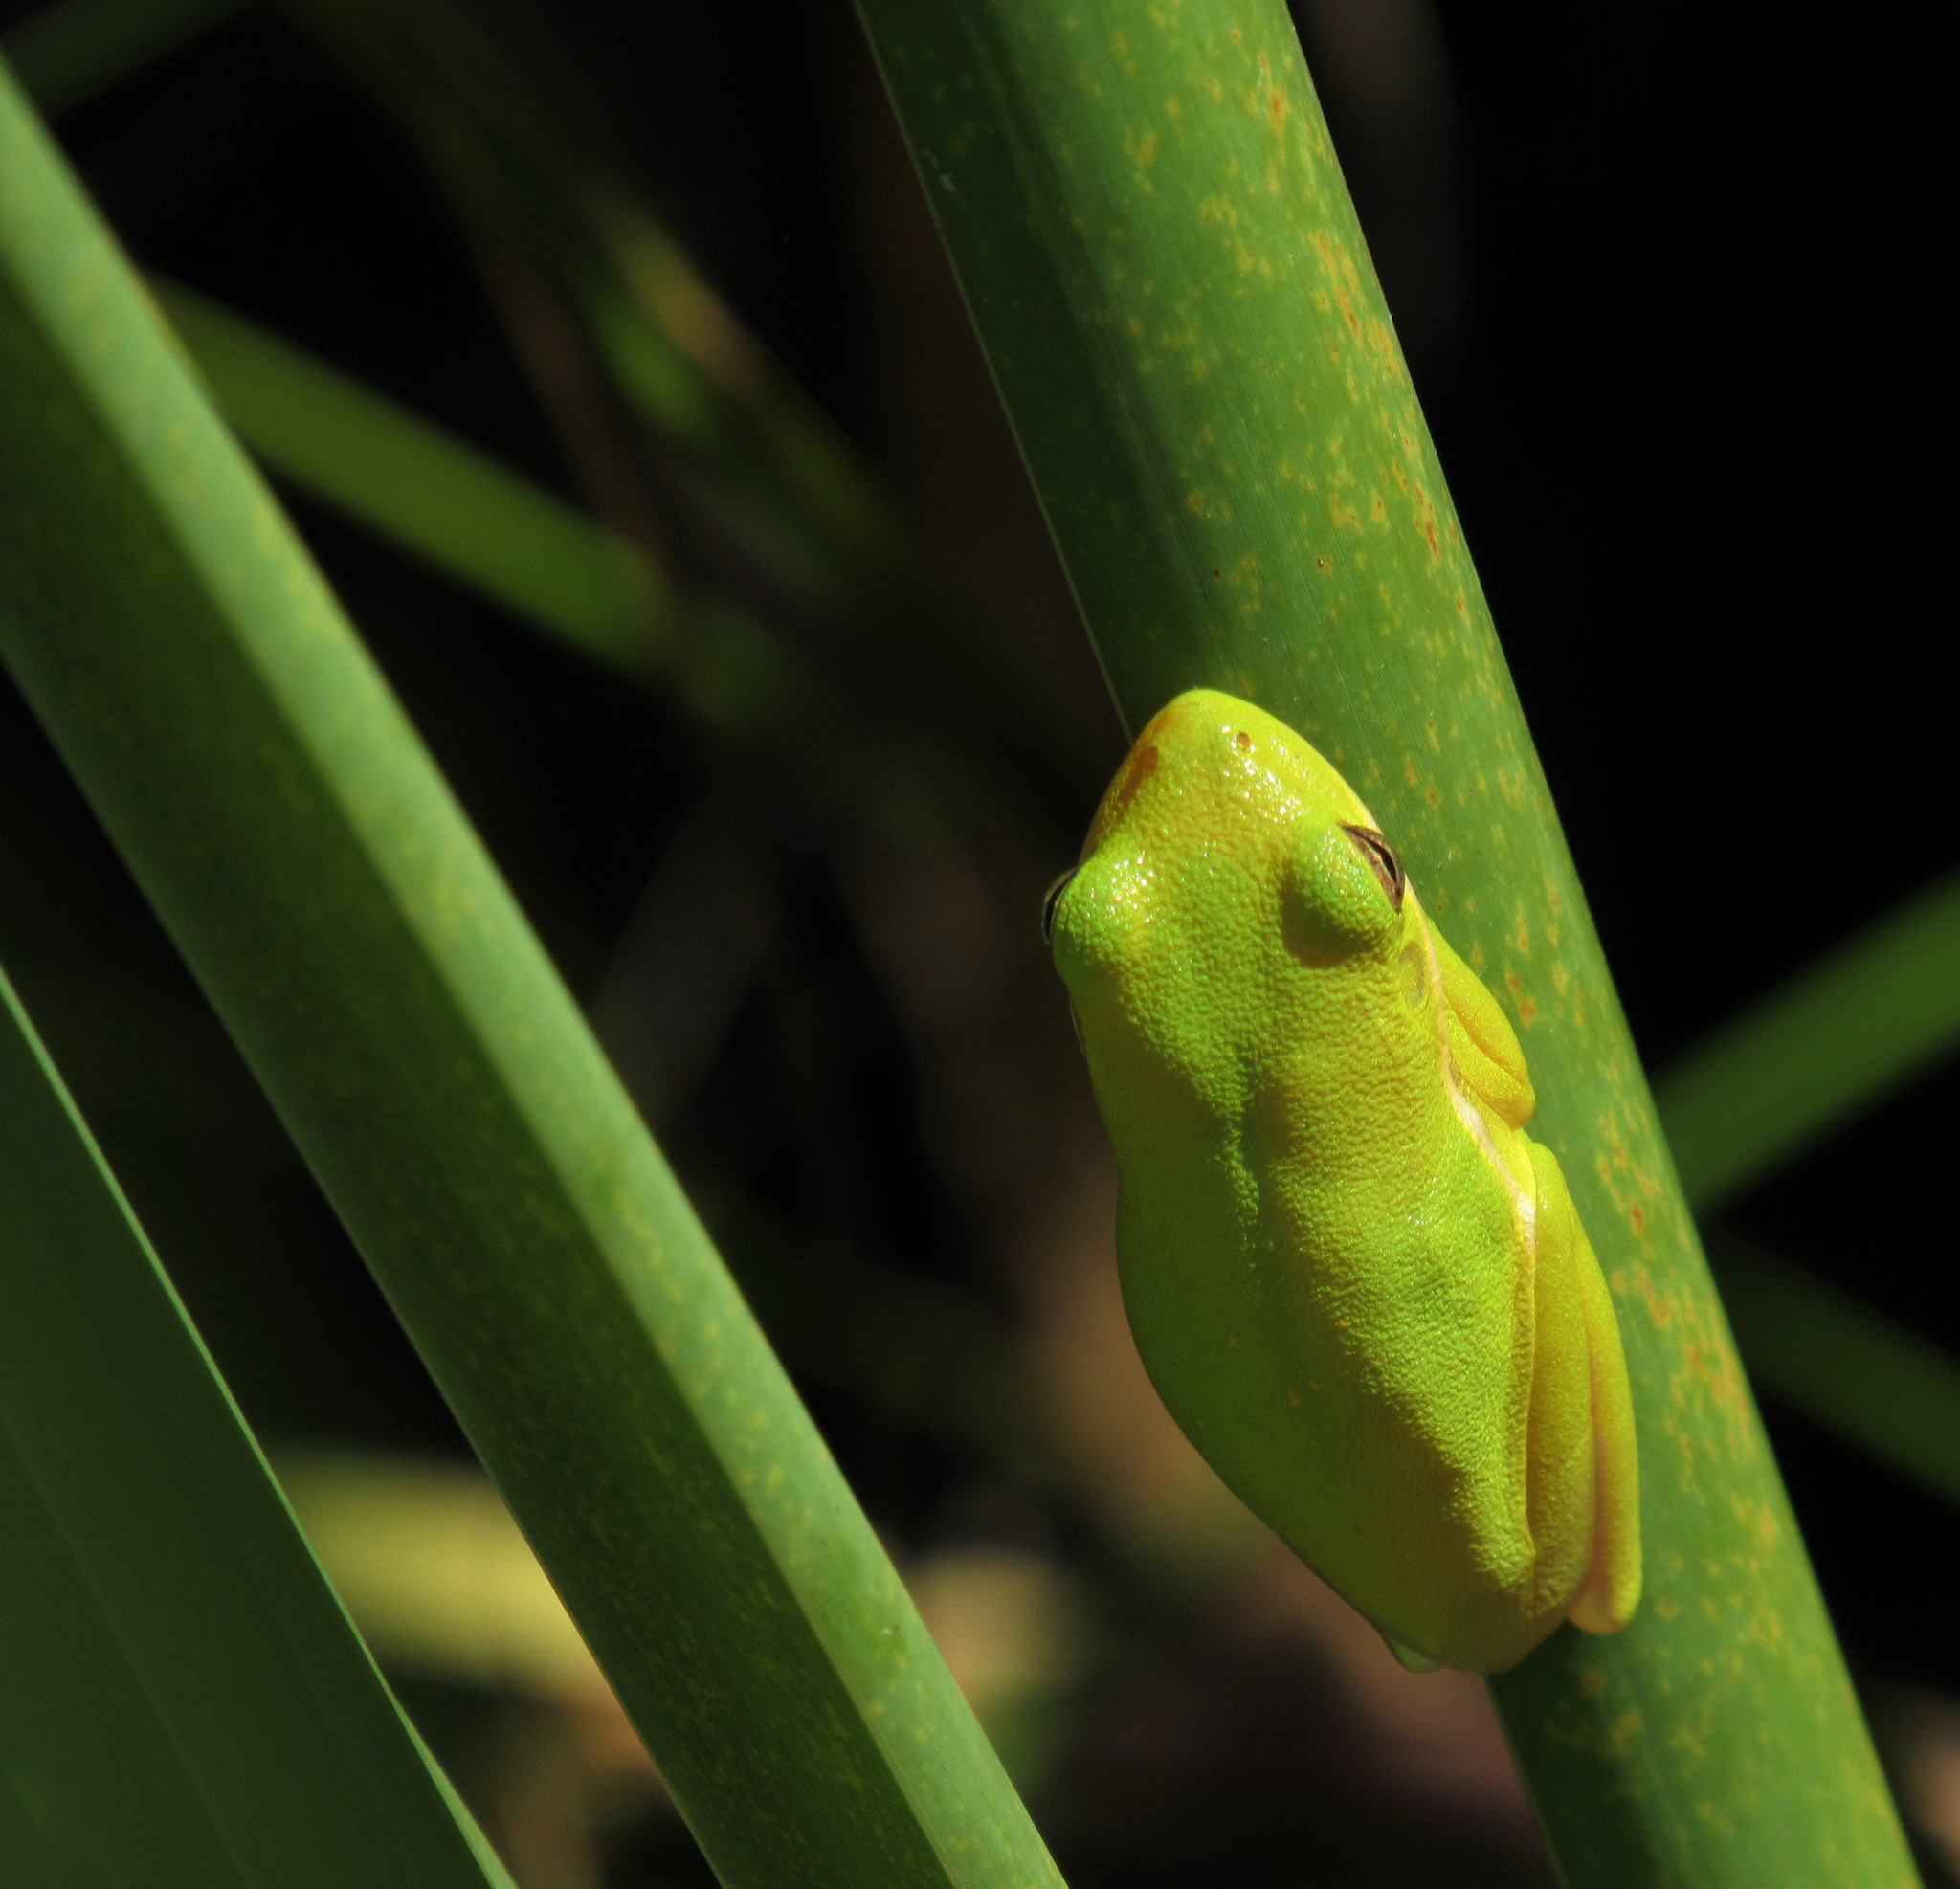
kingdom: Animalia
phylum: Chordata
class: Amphibia
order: Anura
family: Hylidae
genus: Dryophytes
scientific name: Dryophytes cinereus
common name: Green treefrog
